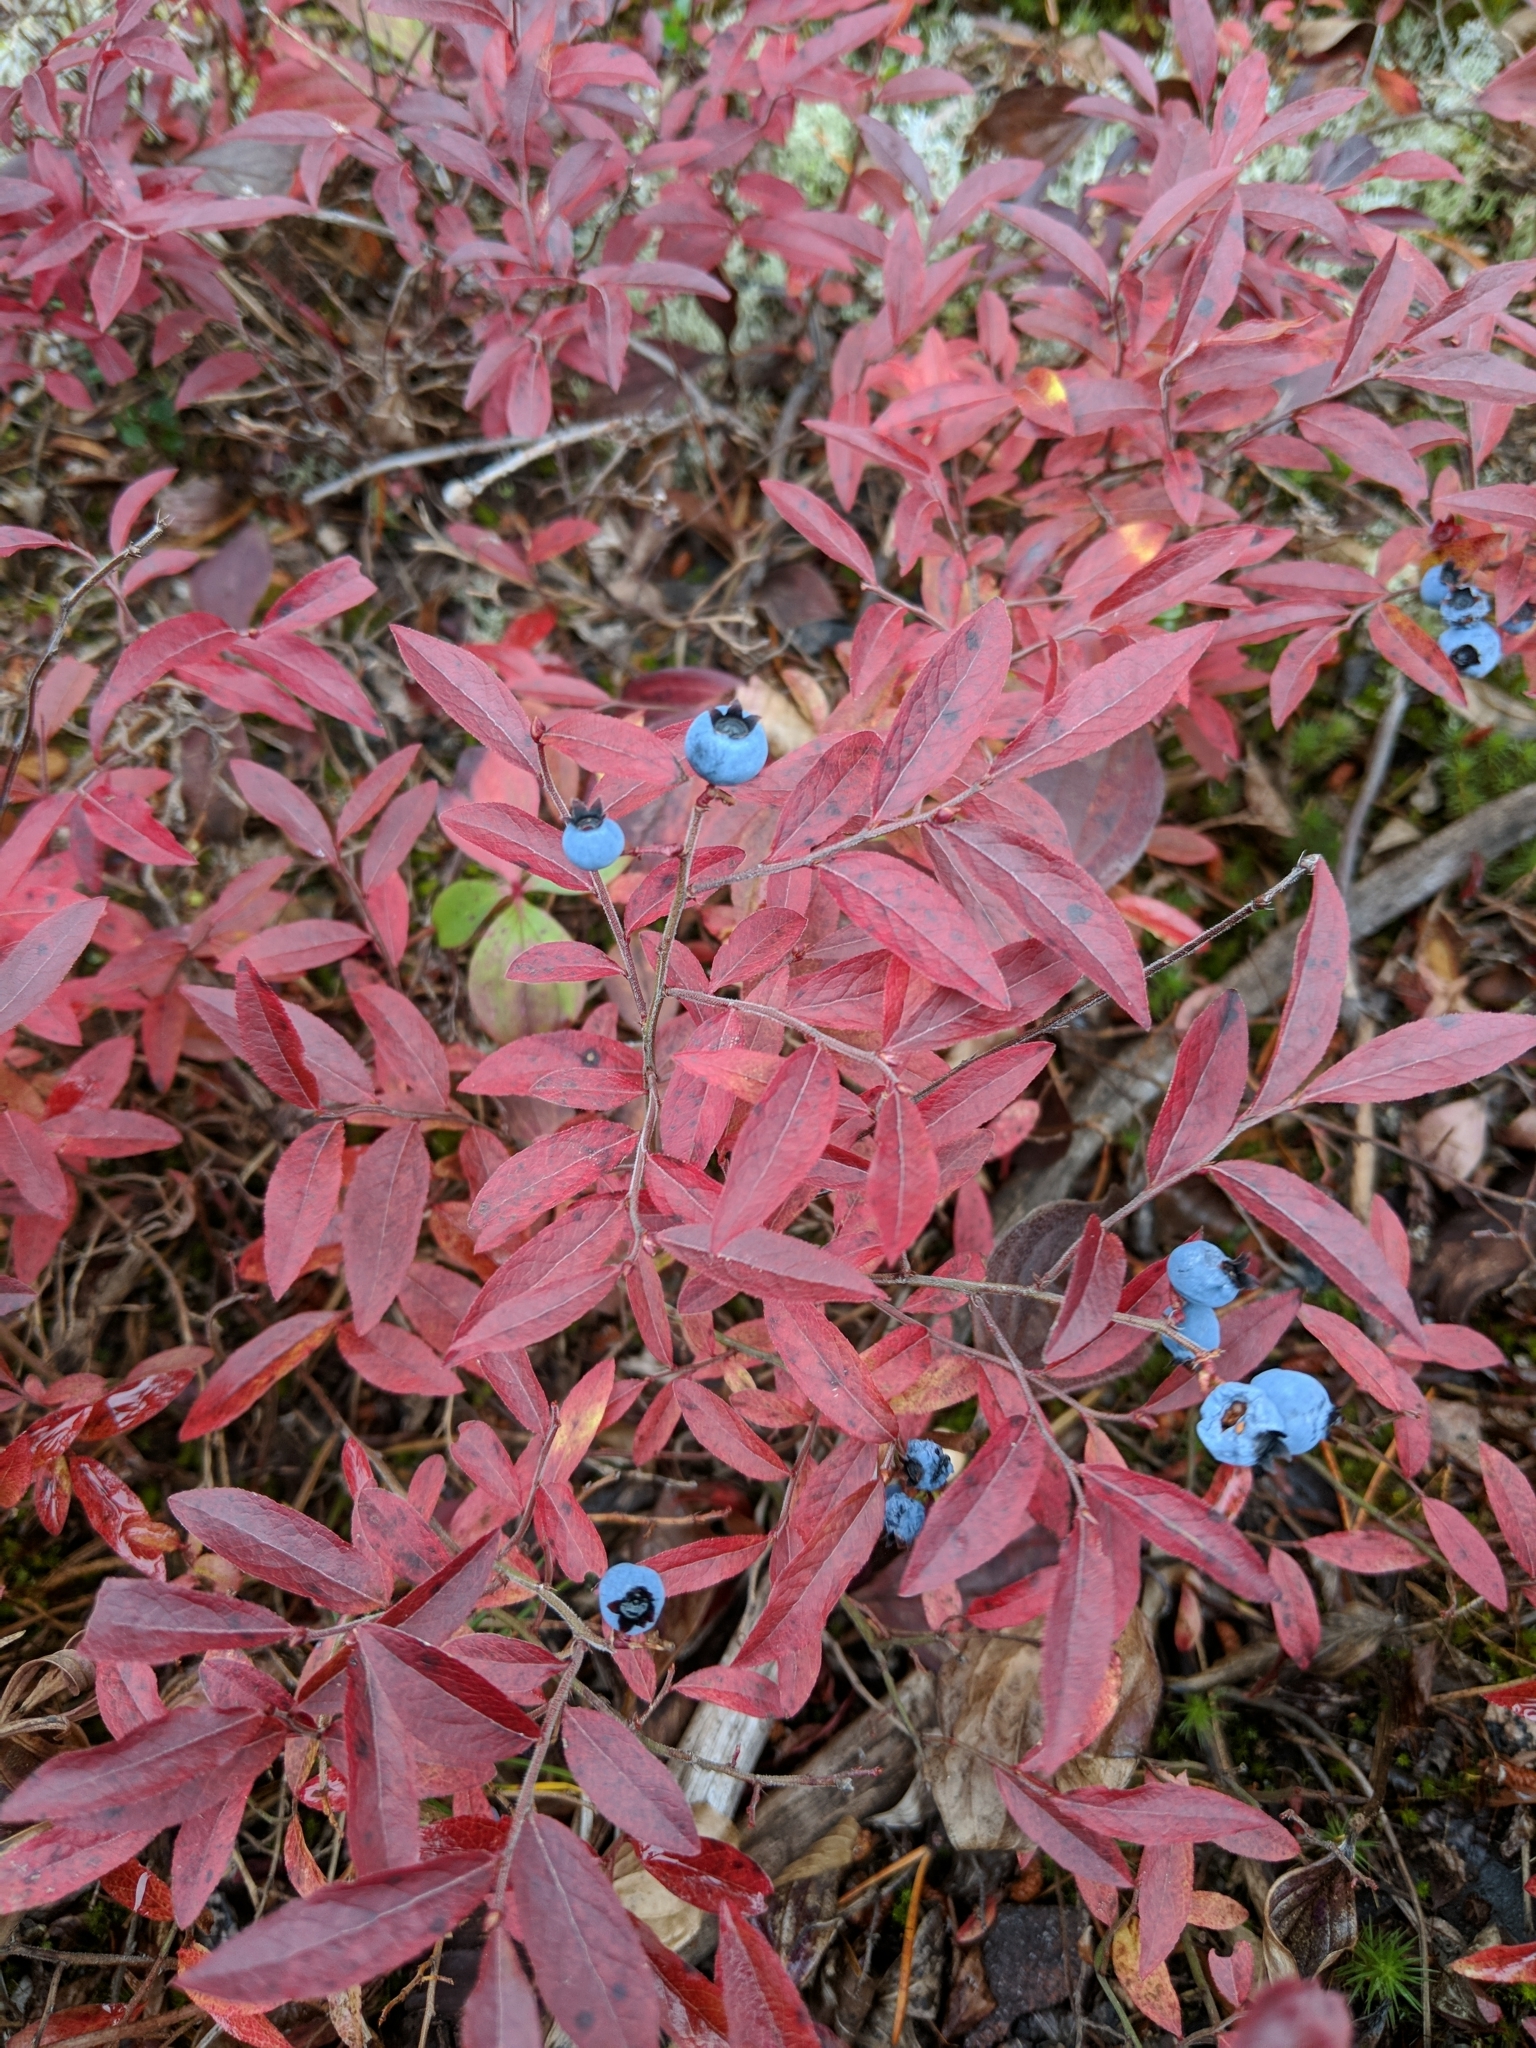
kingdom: Plantae
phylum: Tracheophyta
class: Magnoliopsida
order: Ericales
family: Ericaceae
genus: Vaccinium
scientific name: Vaccinium boreale
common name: Northern blueberry
